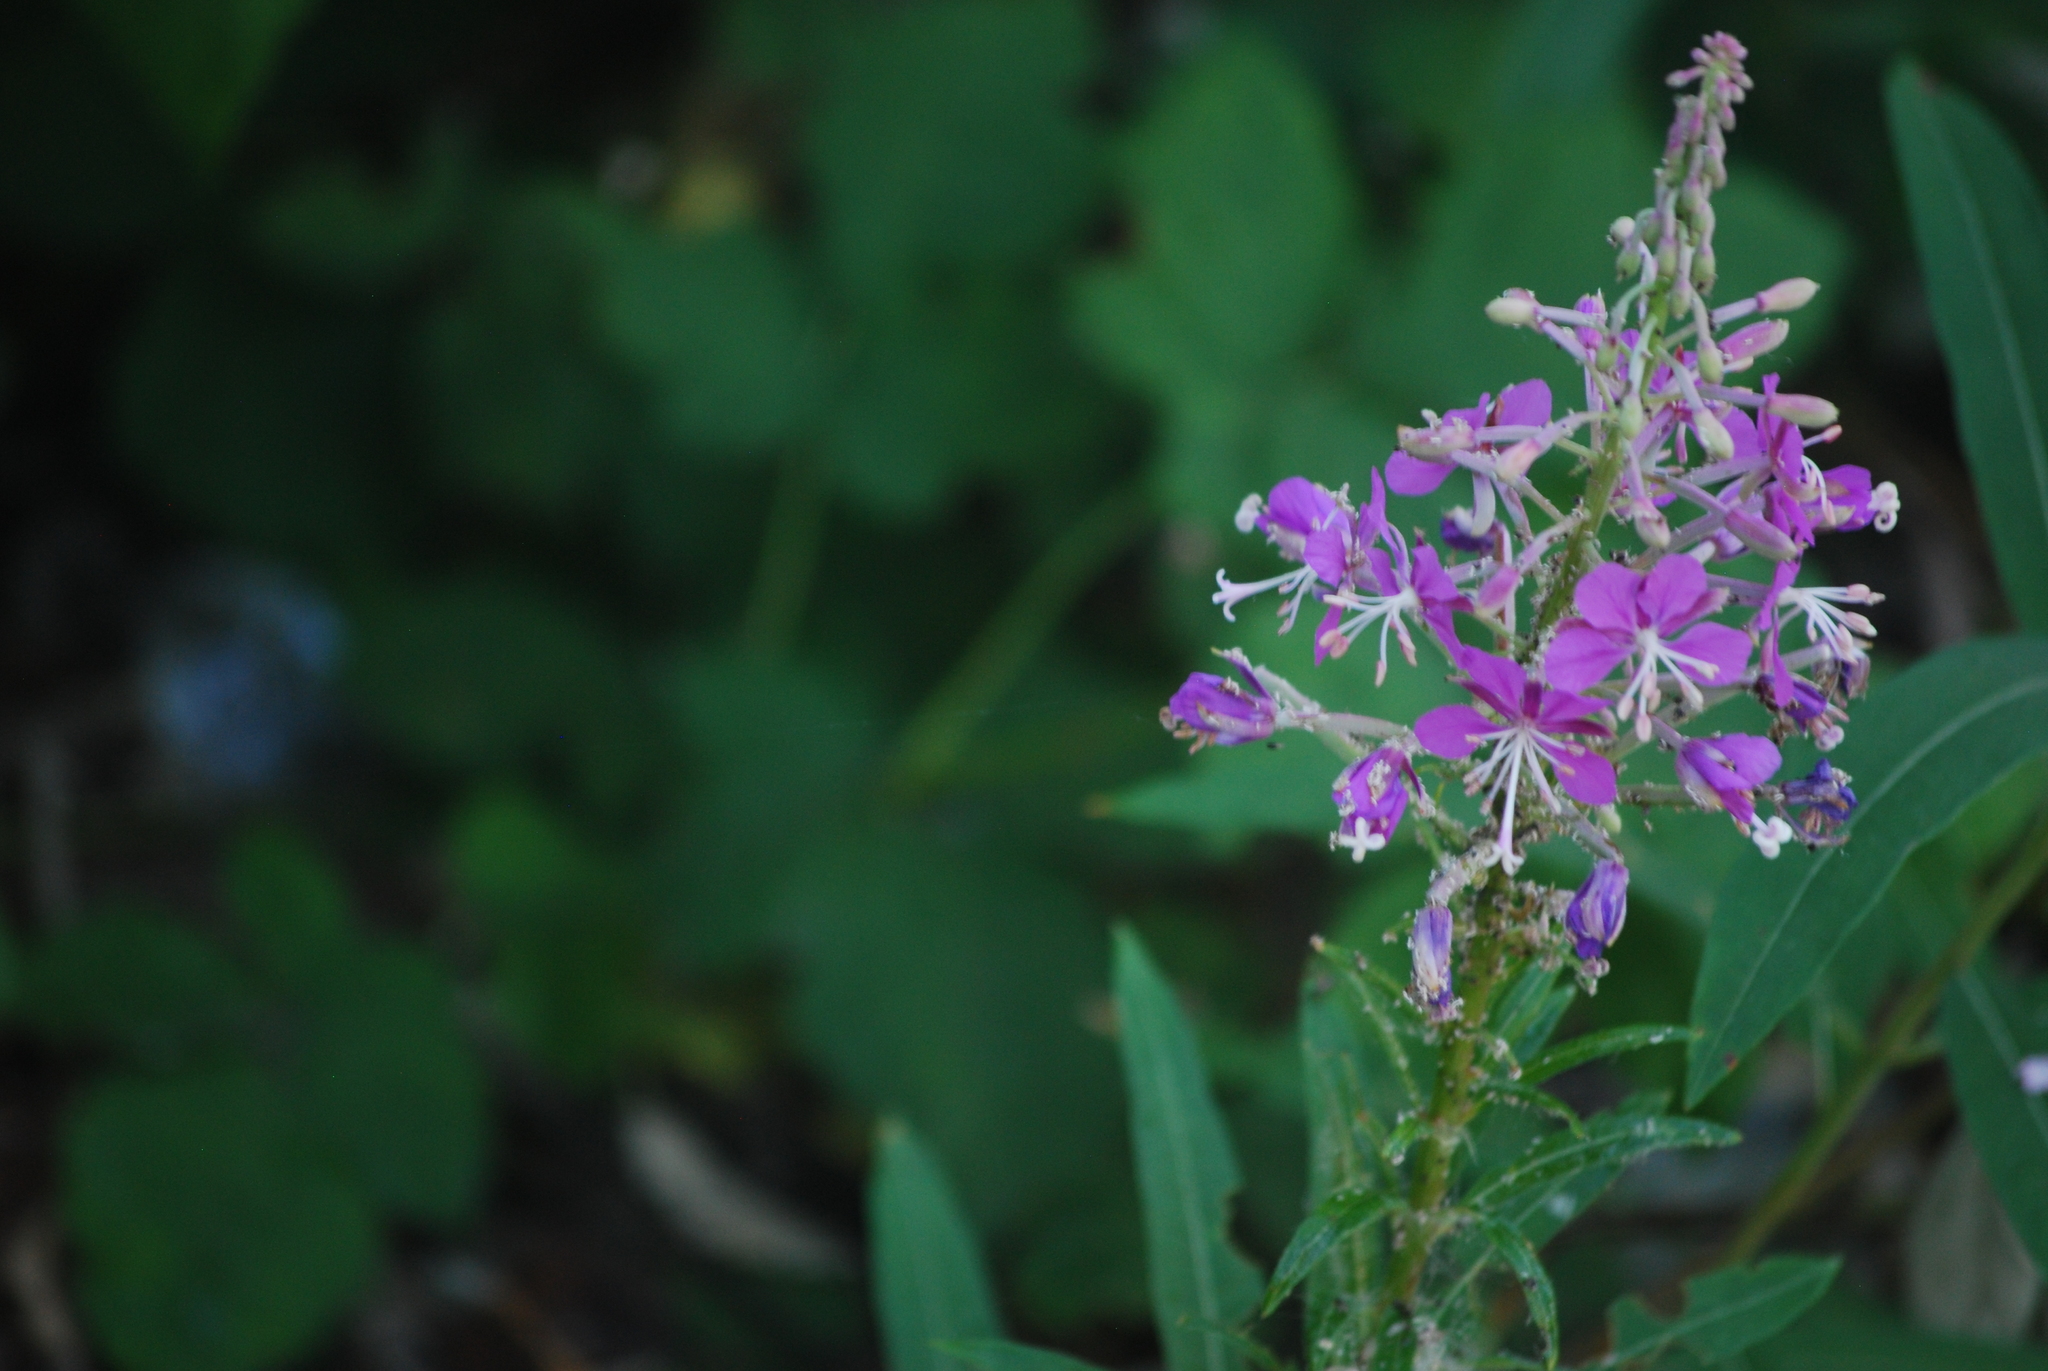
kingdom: Plantae
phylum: Tracheophyta
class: Magnoliopsida
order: Myrtales
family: Onagraceae
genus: Chamaenerion
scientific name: Chamaenerion angustifolium
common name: Fireweed
